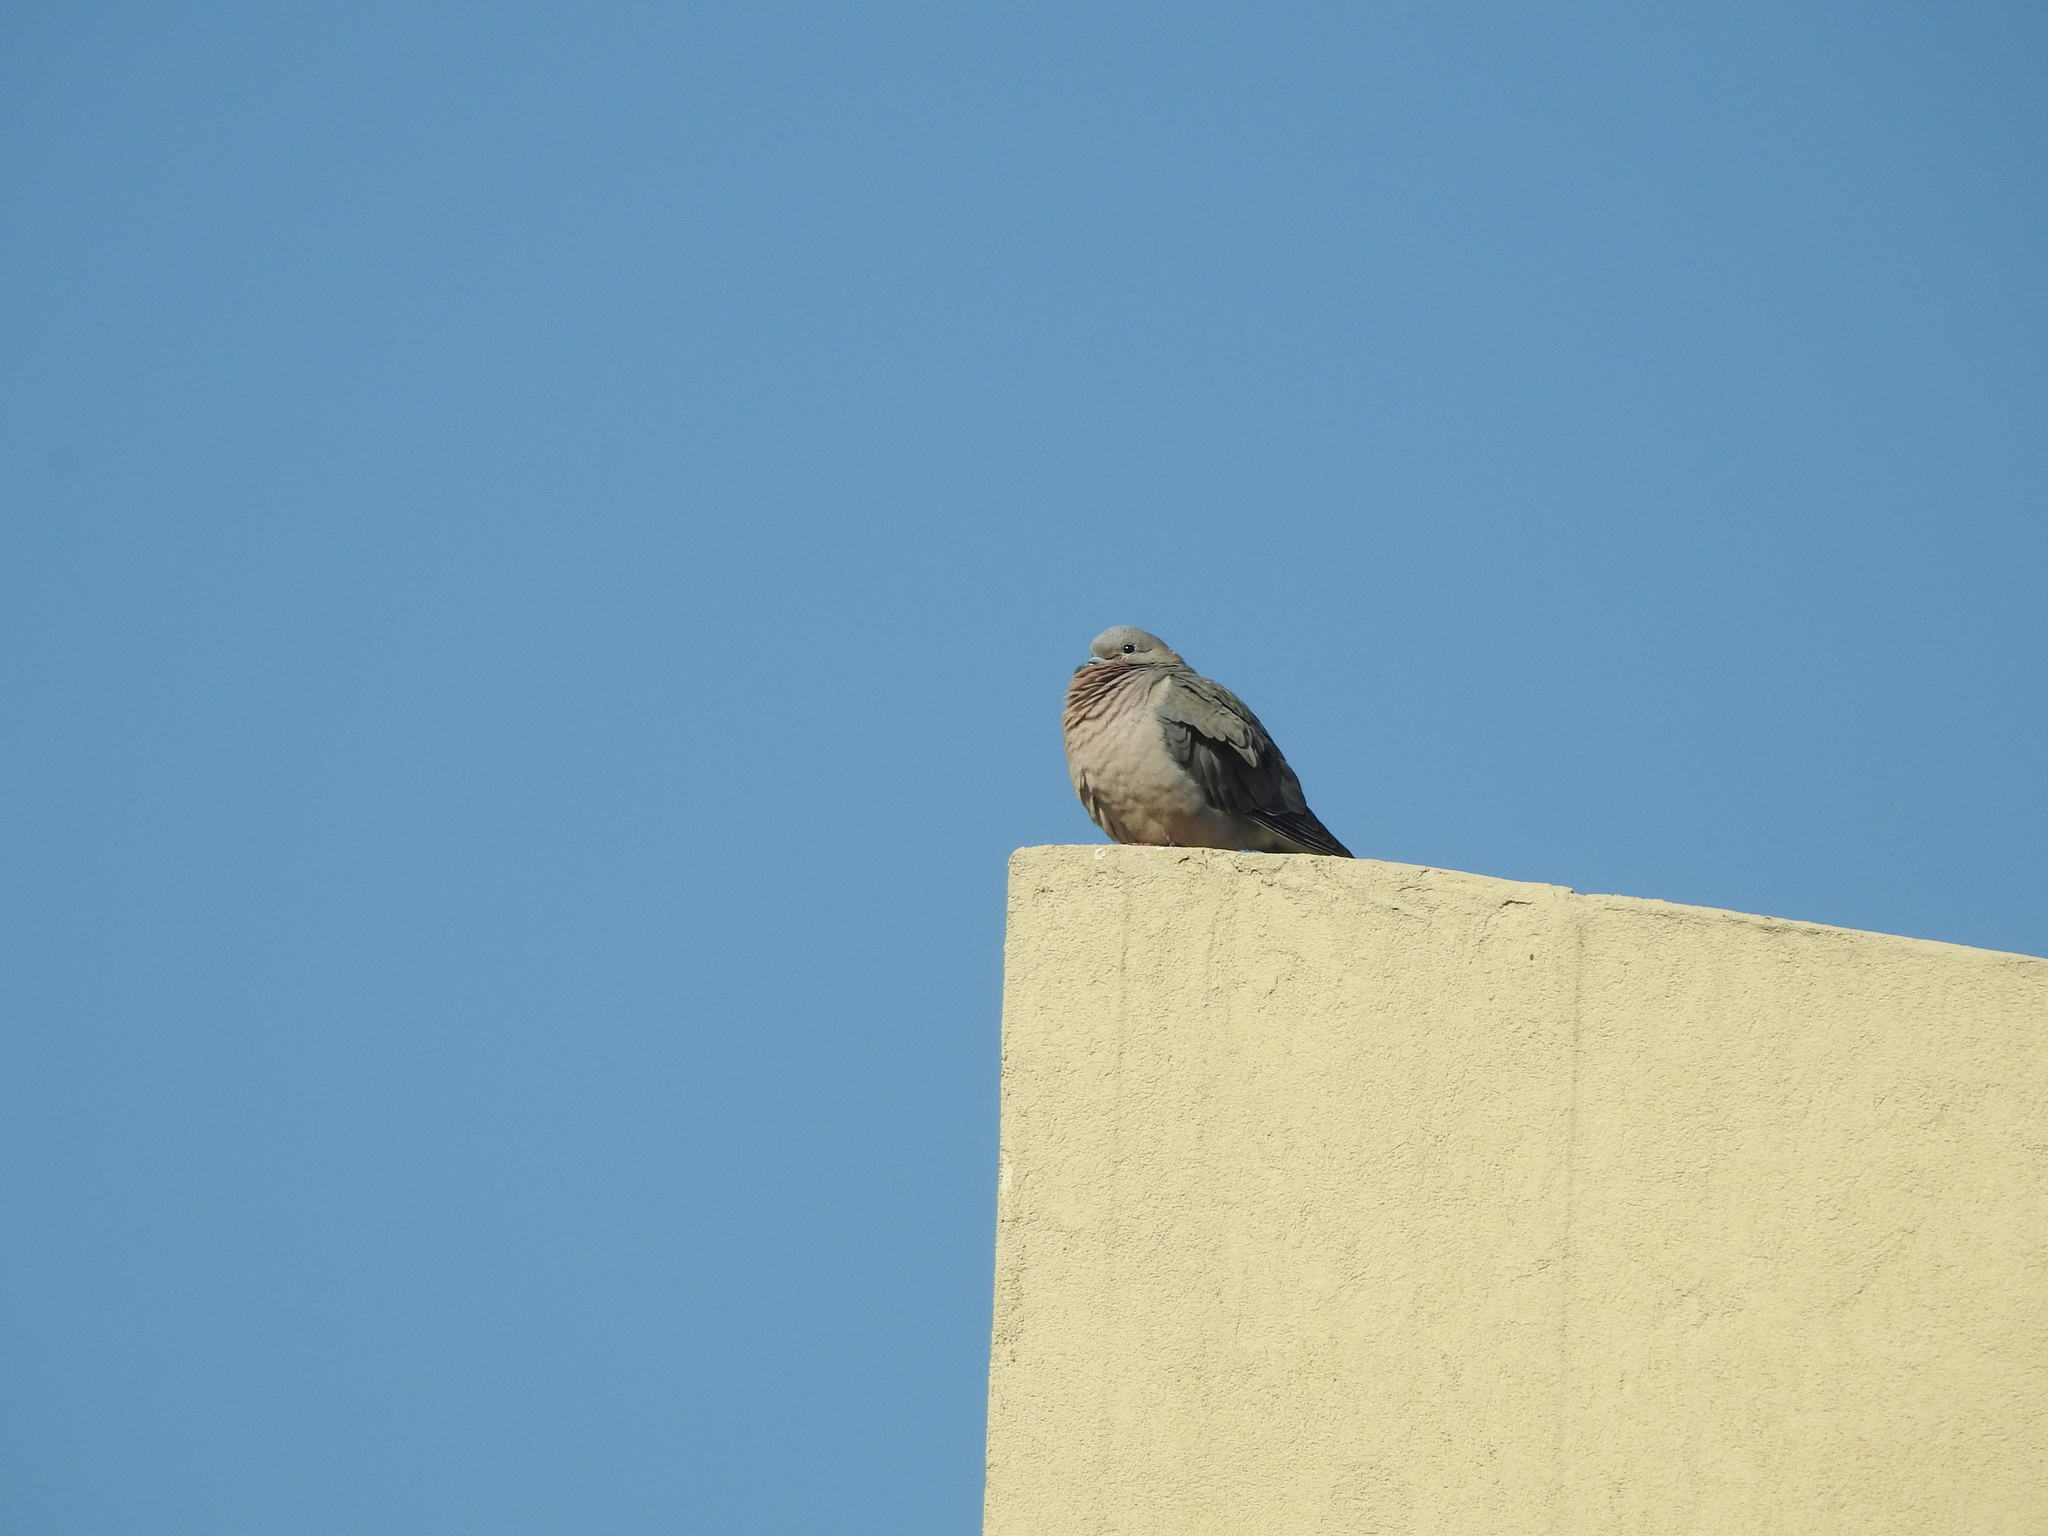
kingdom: Animalia
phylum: Chordata
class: Aves
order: Columbiformes
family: Columbidae
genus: Zenaida
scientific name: Zenaida auriculata
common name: Eared dove
